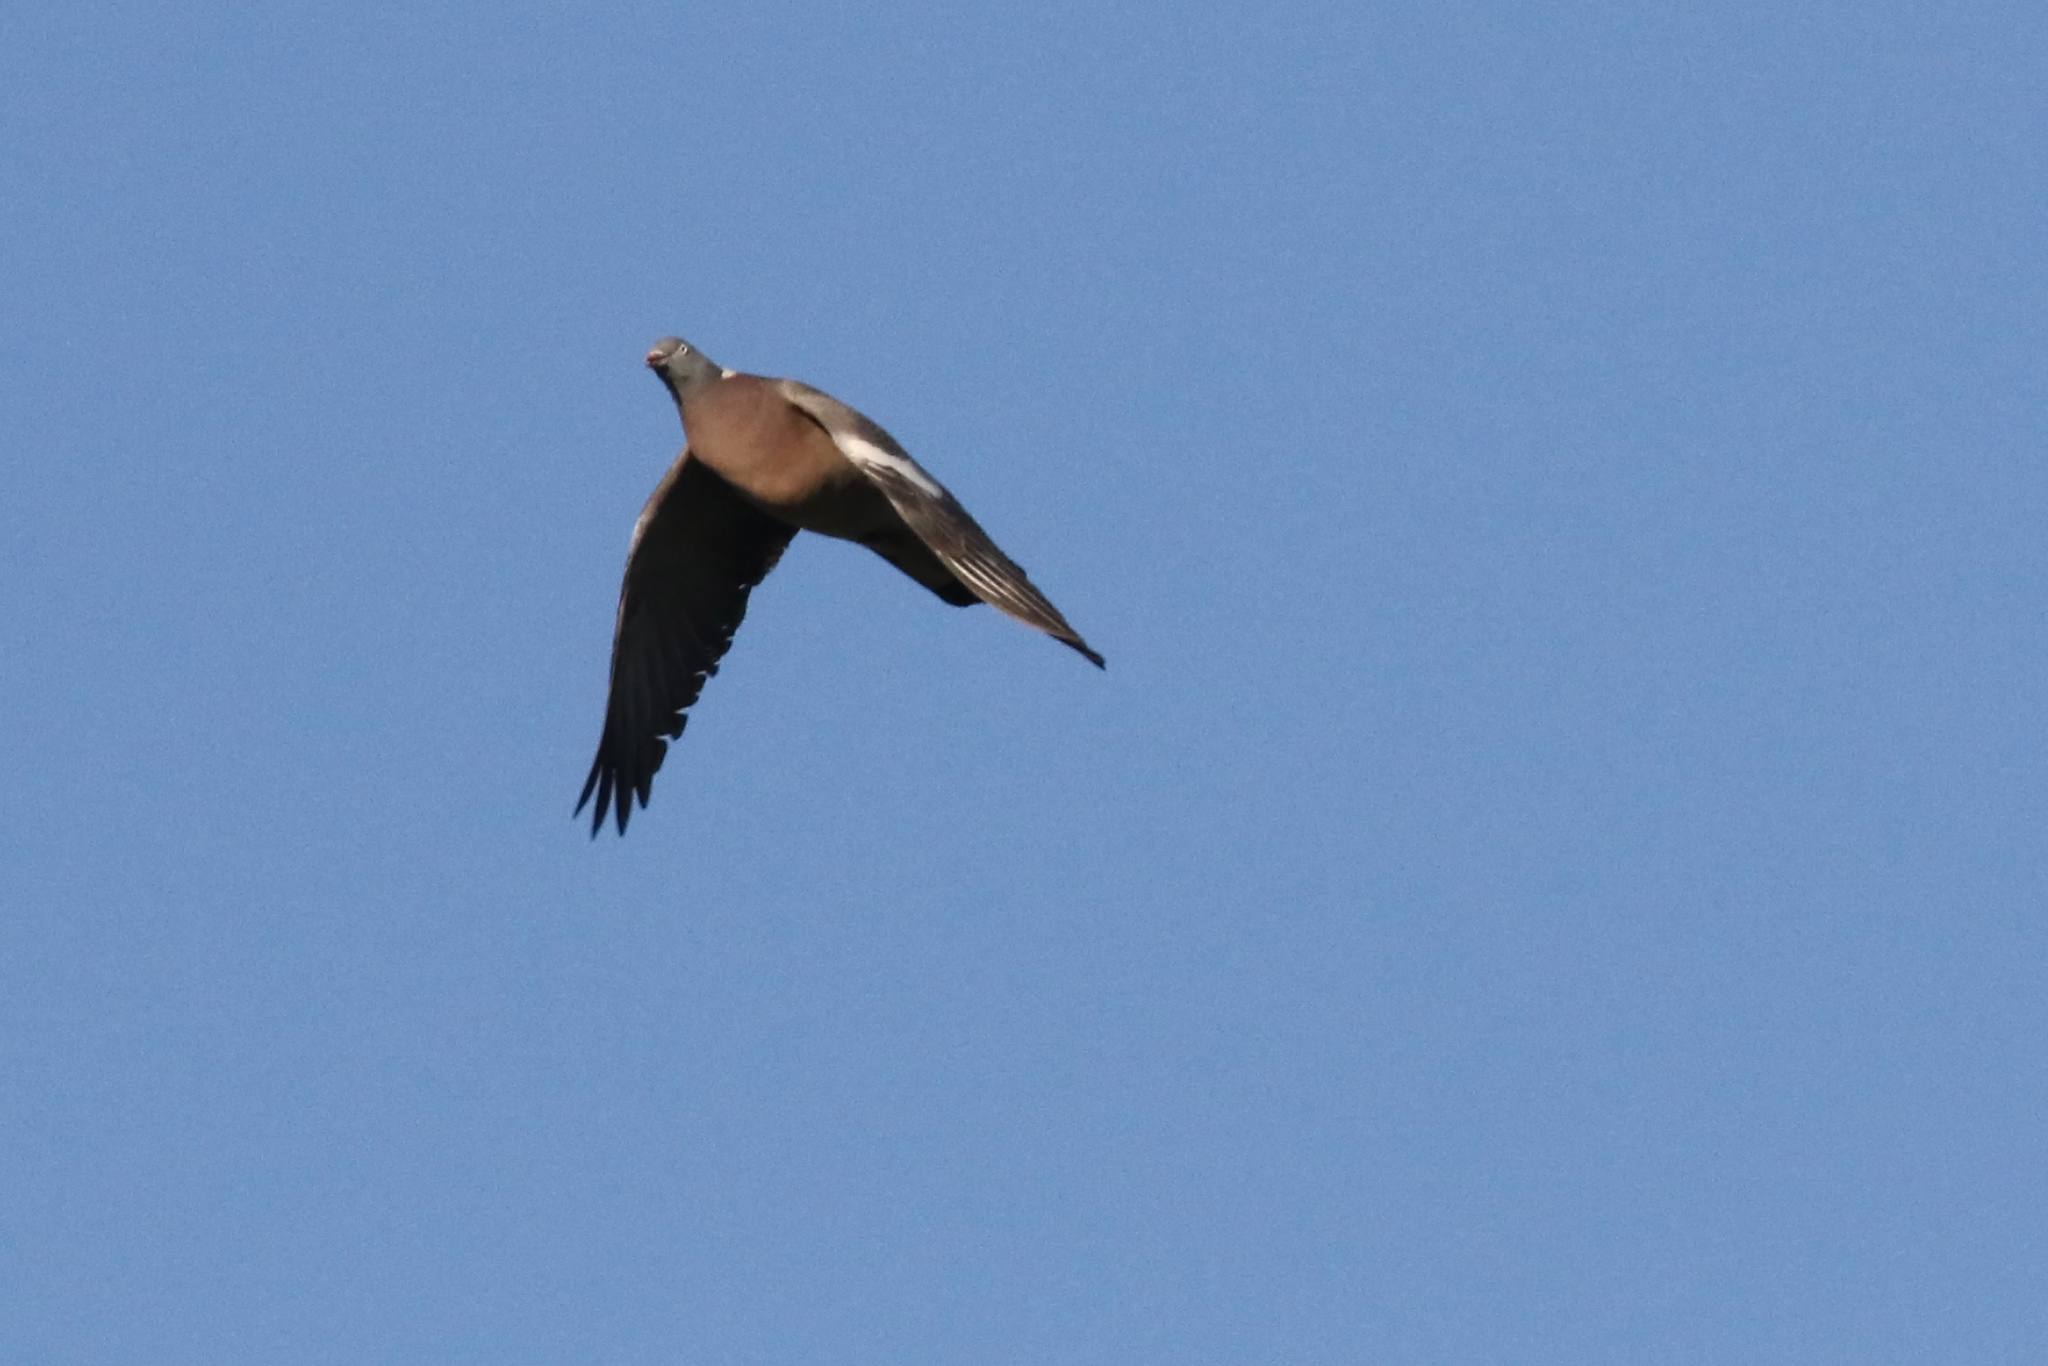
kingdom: Animalia
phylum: Chordata
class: Aves
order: Columbiformes
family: Columbidae
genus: Columba
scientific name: Columba palumbus
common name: Common wood pigeon
